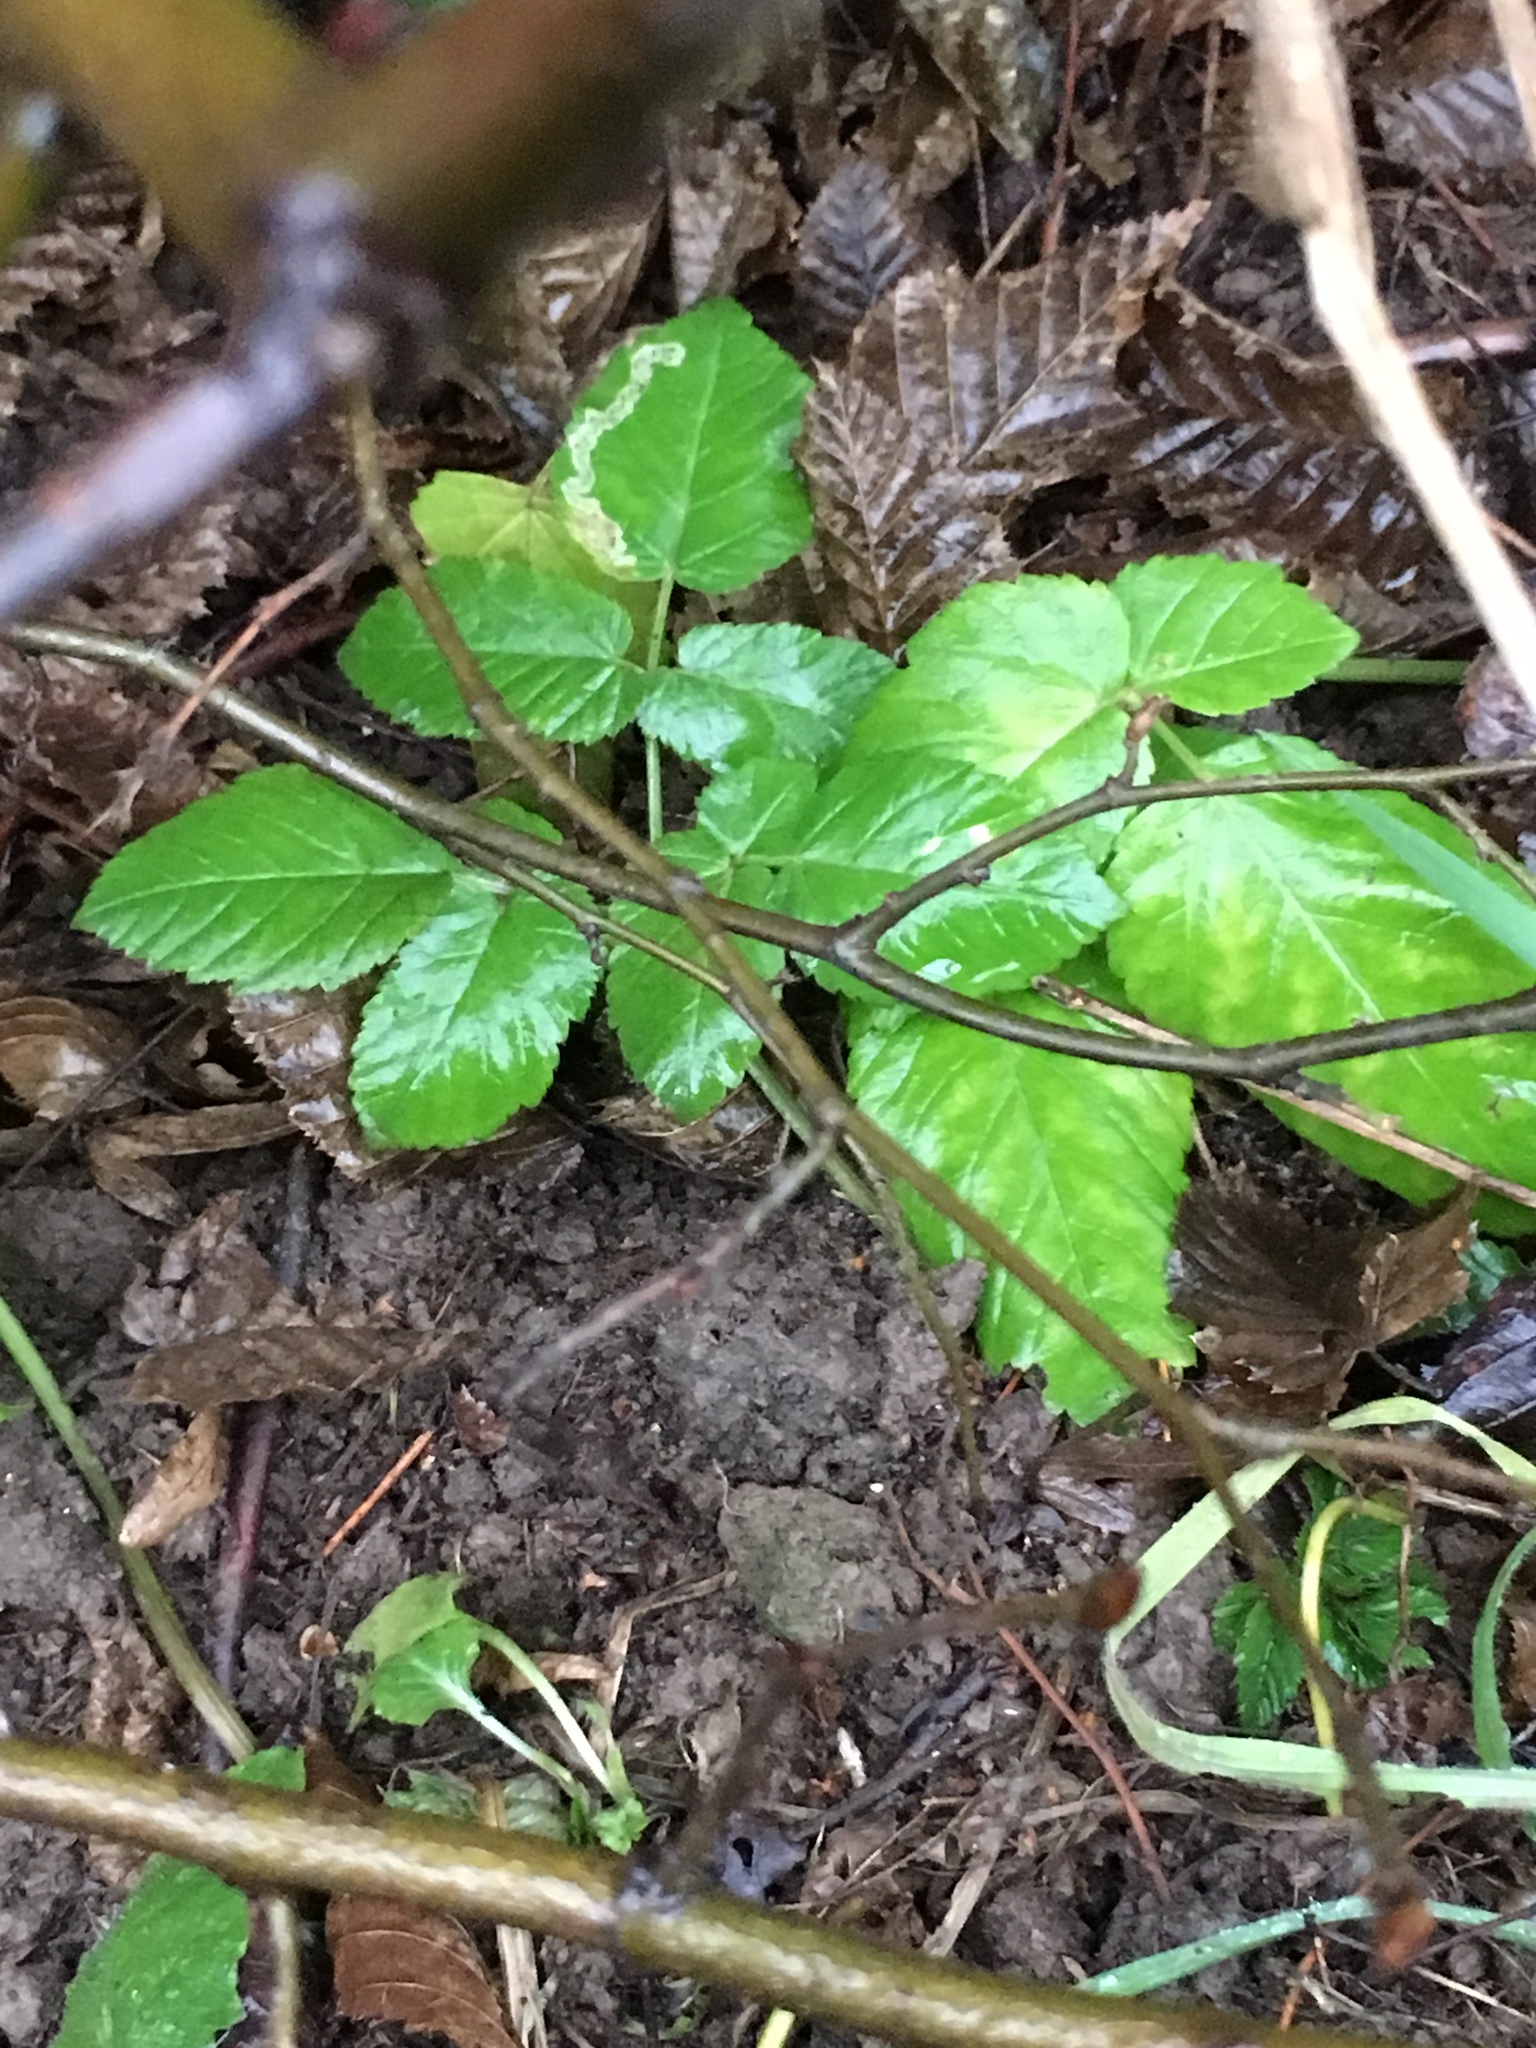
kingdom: Plantae
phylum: Tracheophyta
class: Magnoliopsida
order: Apiales
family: Apiaceae
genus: Aegopodium
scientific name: Aegopodium podagraria
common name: Ground-elder
